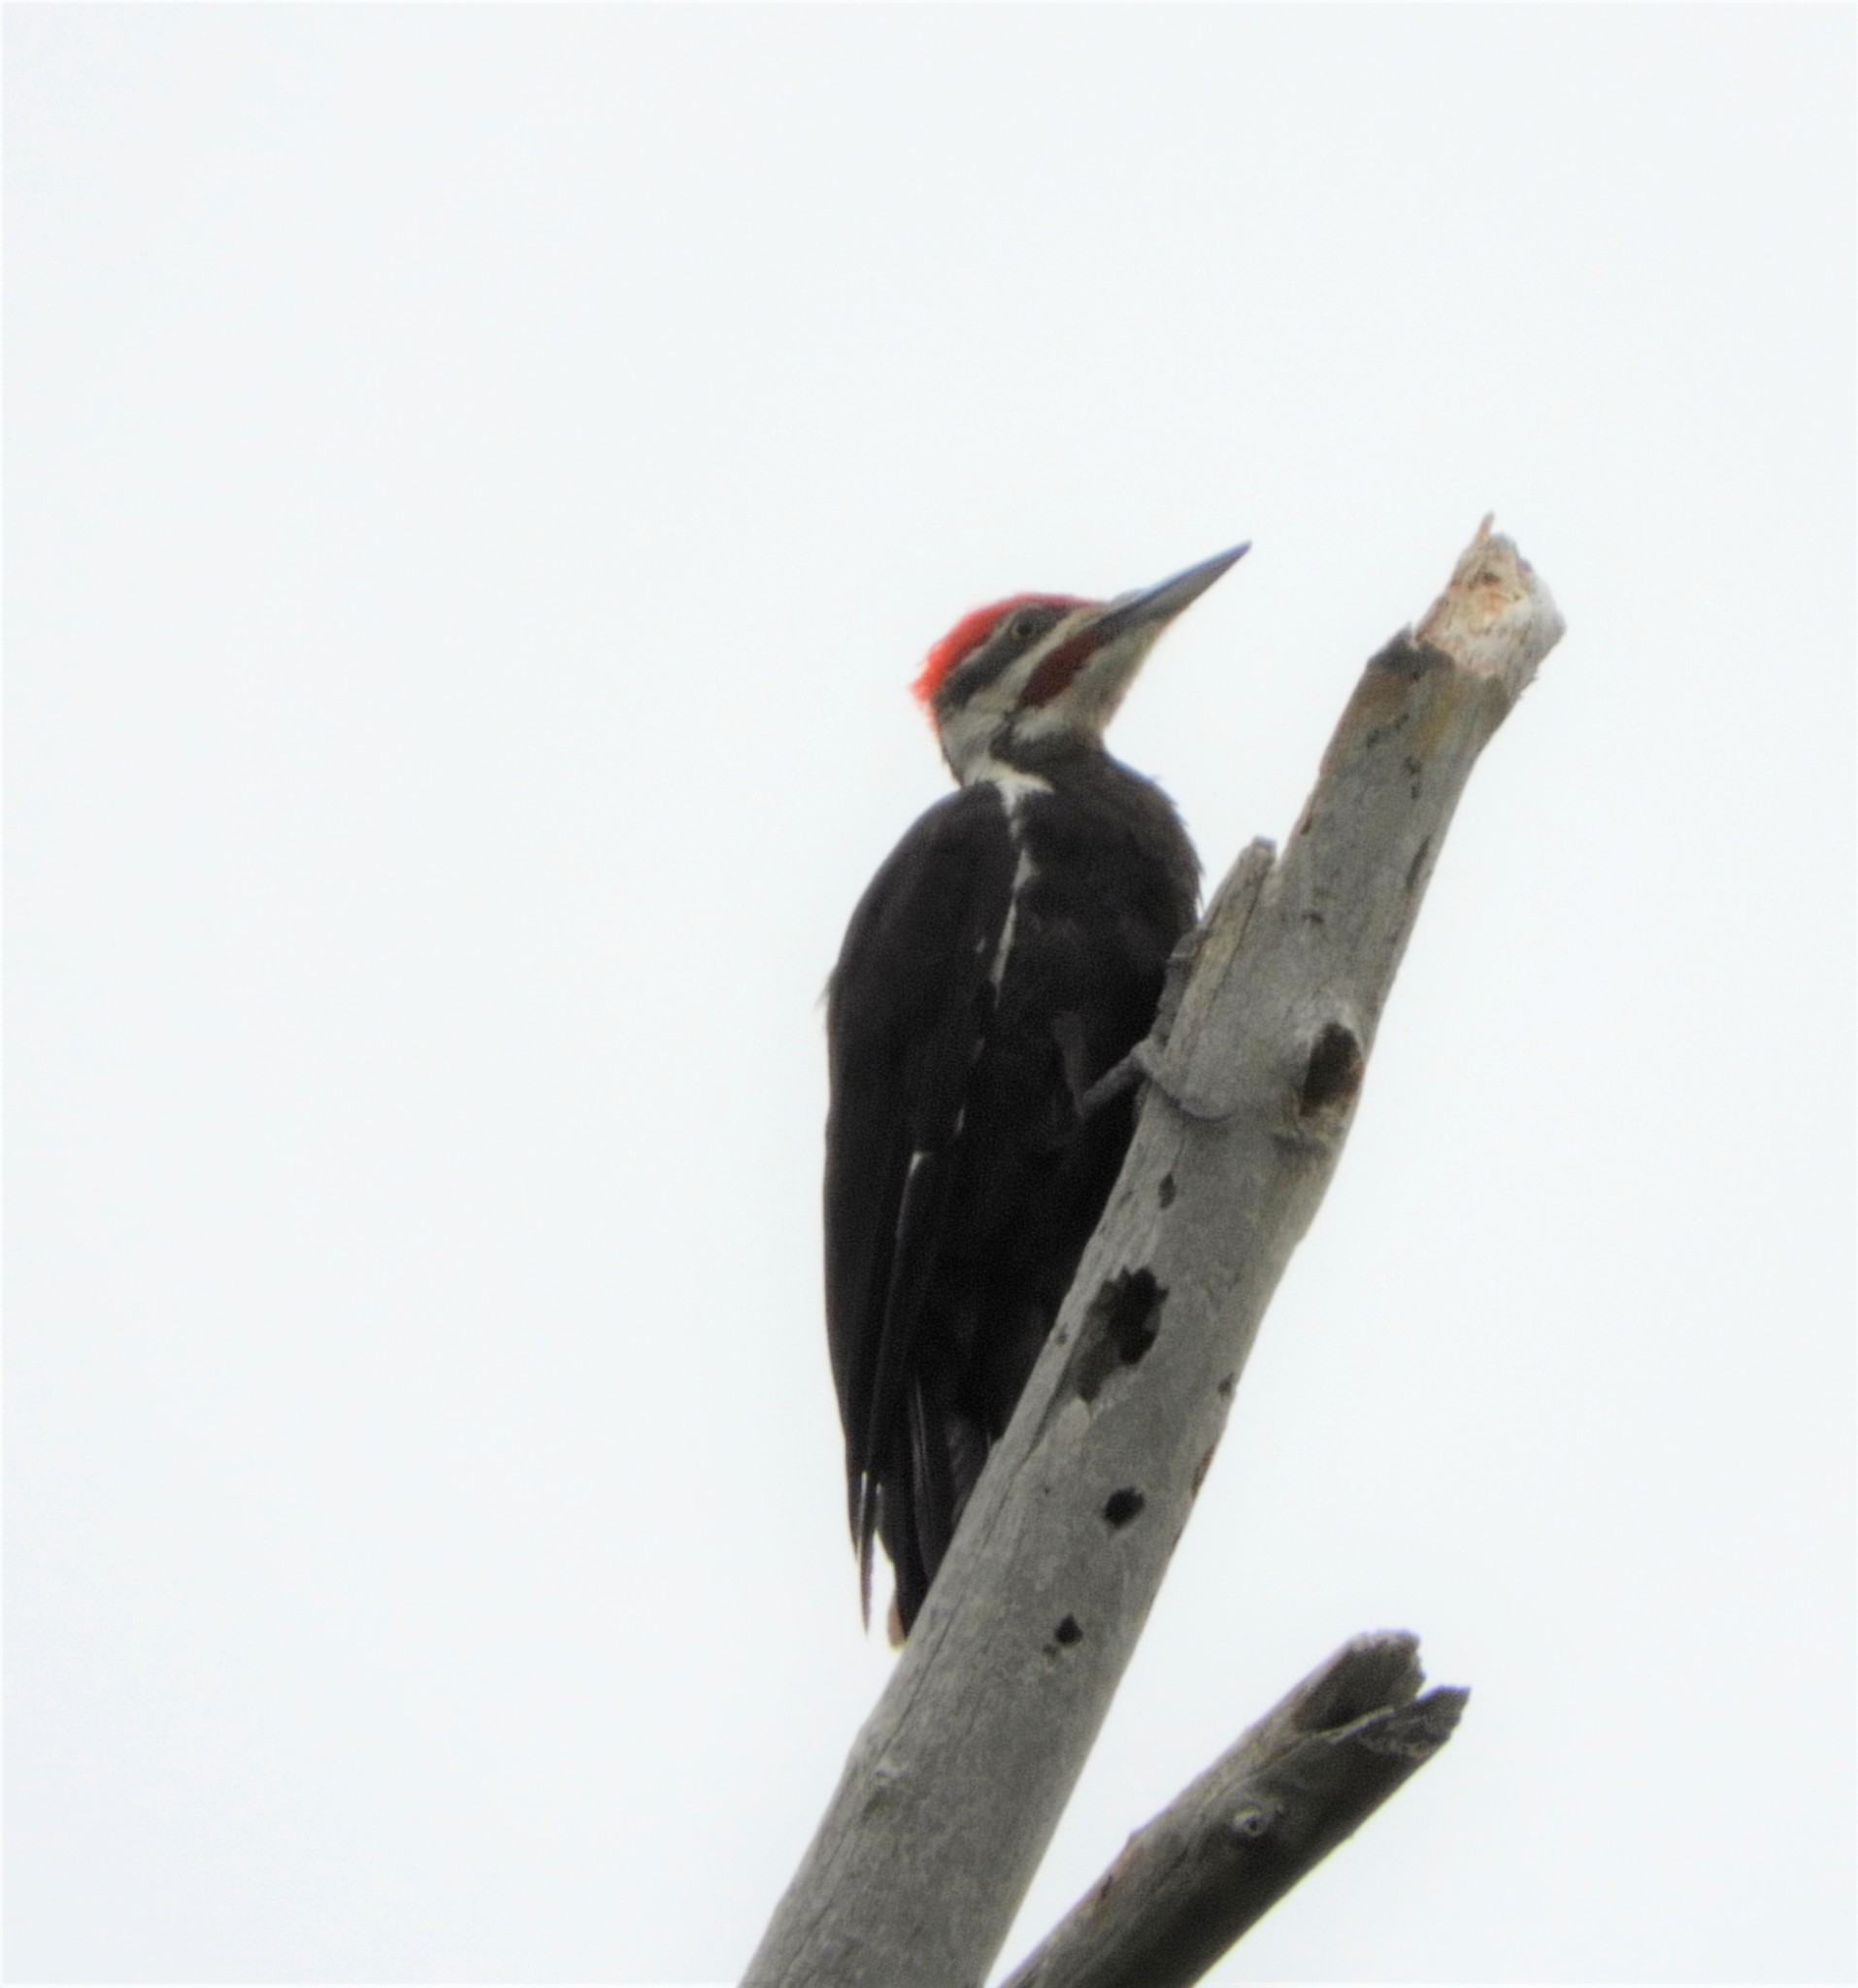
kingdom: Animalia
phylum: Chordata
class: Aves
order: Piciformes
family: Picidae
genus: Dryocopus
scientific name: Dryocopus pileatus
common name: Pileated woodpecker
